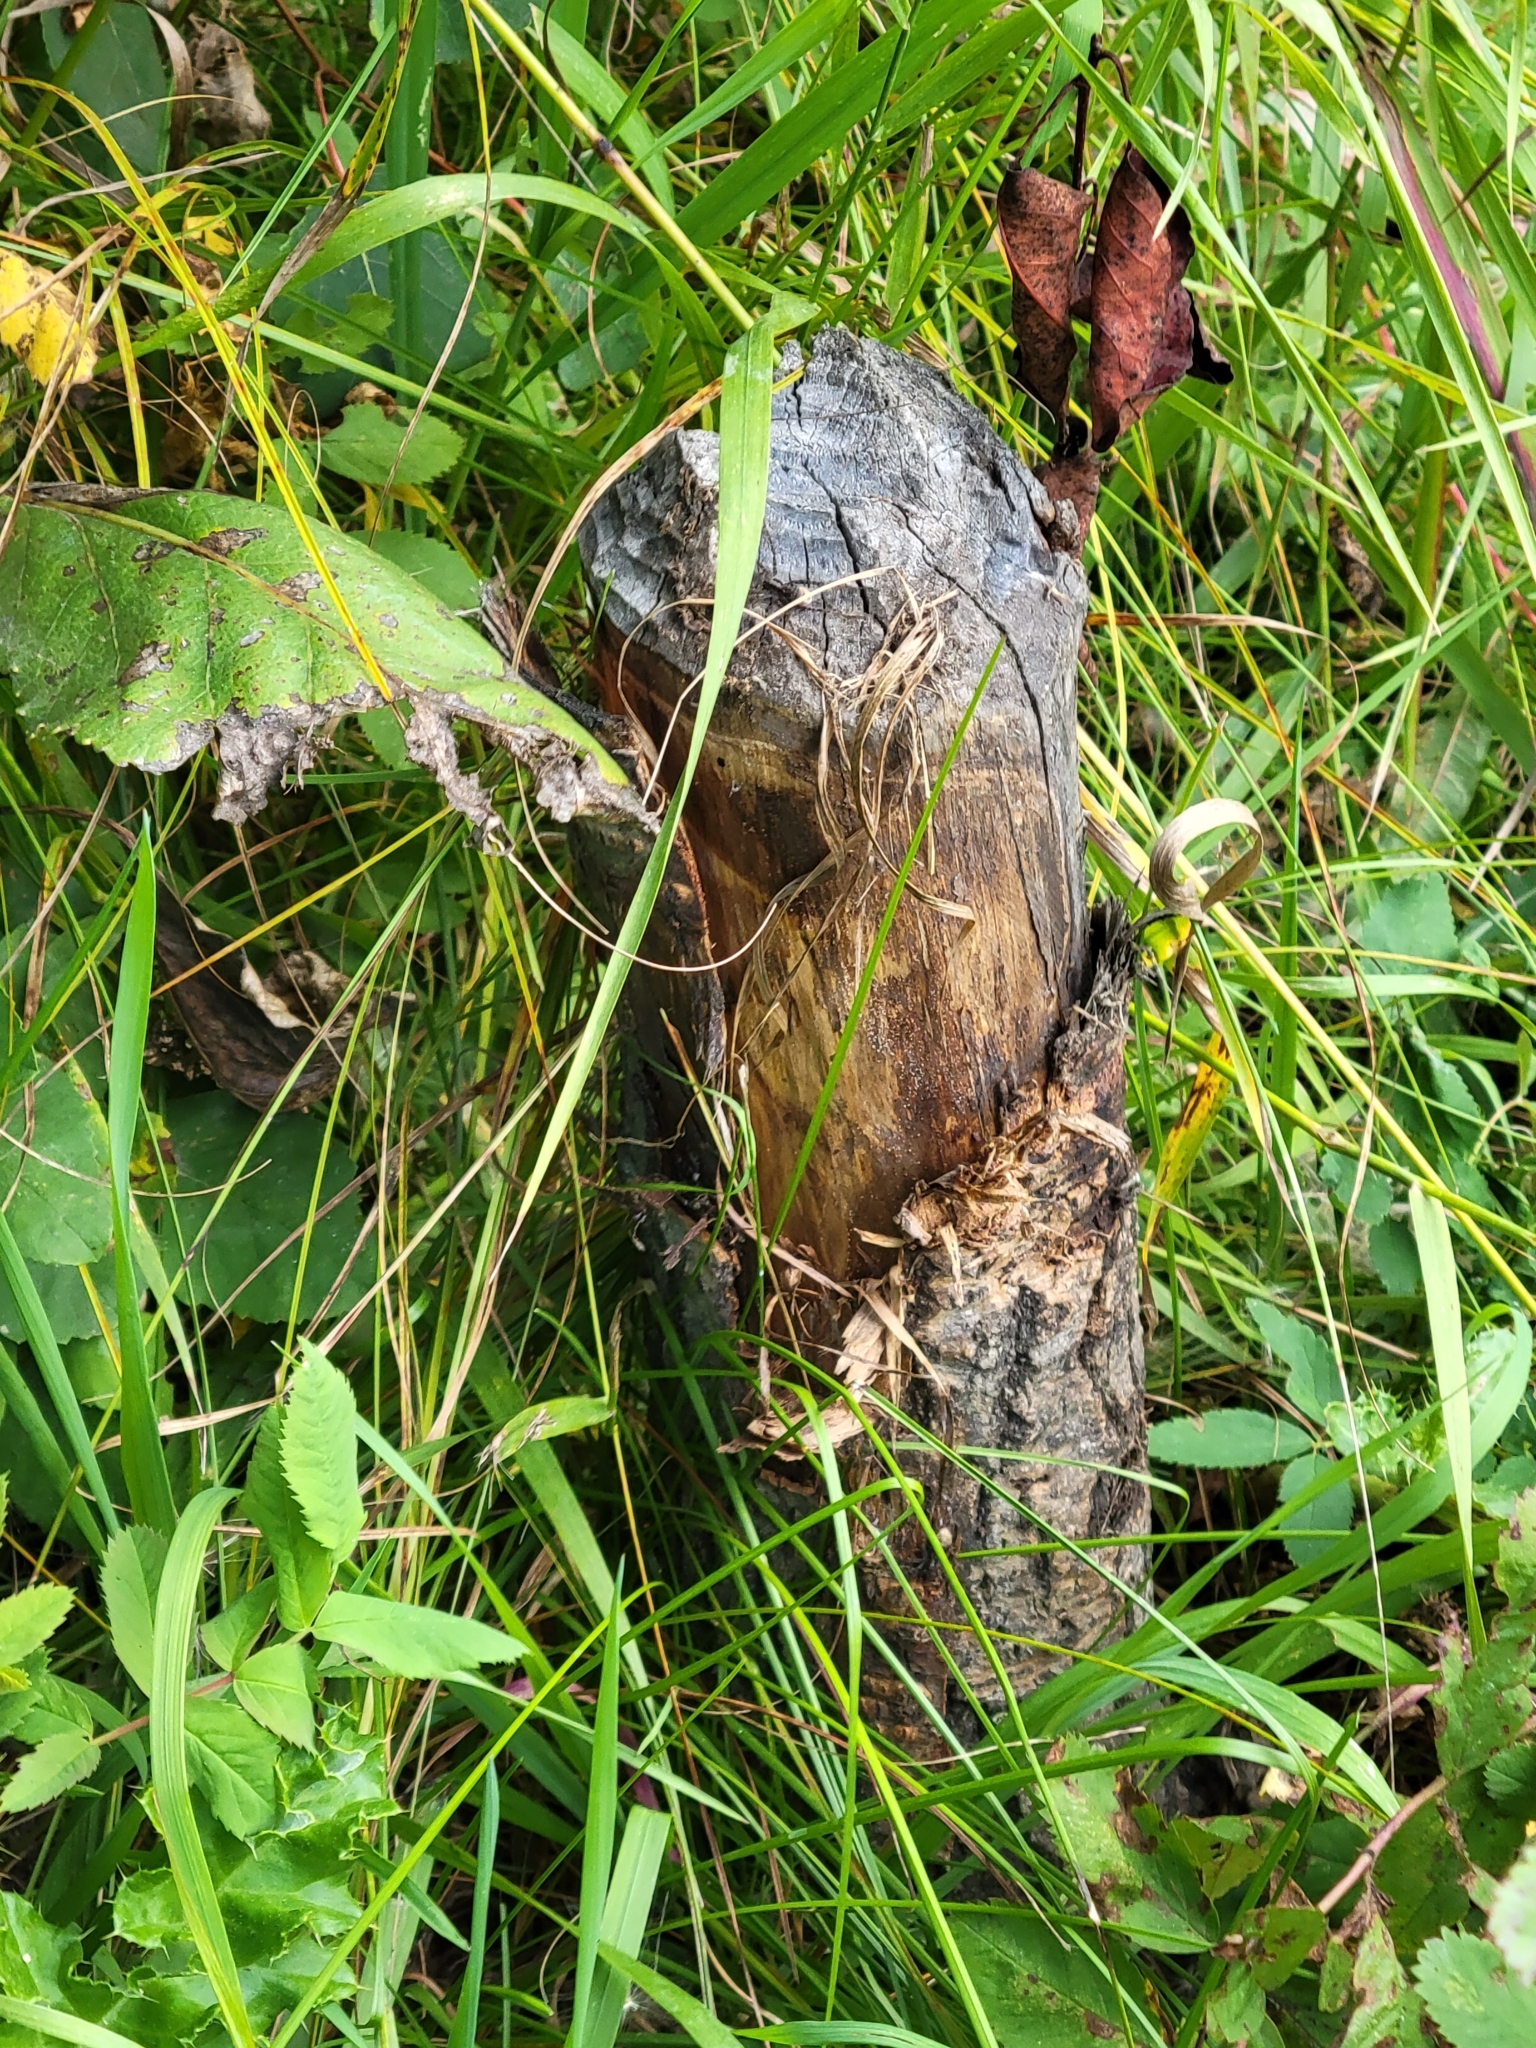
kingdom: Animalia
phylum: Chordata
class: Mammalia
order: Rodentia
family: Castoridae
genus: Castor
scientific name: Castor canadensis
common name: American beaver
